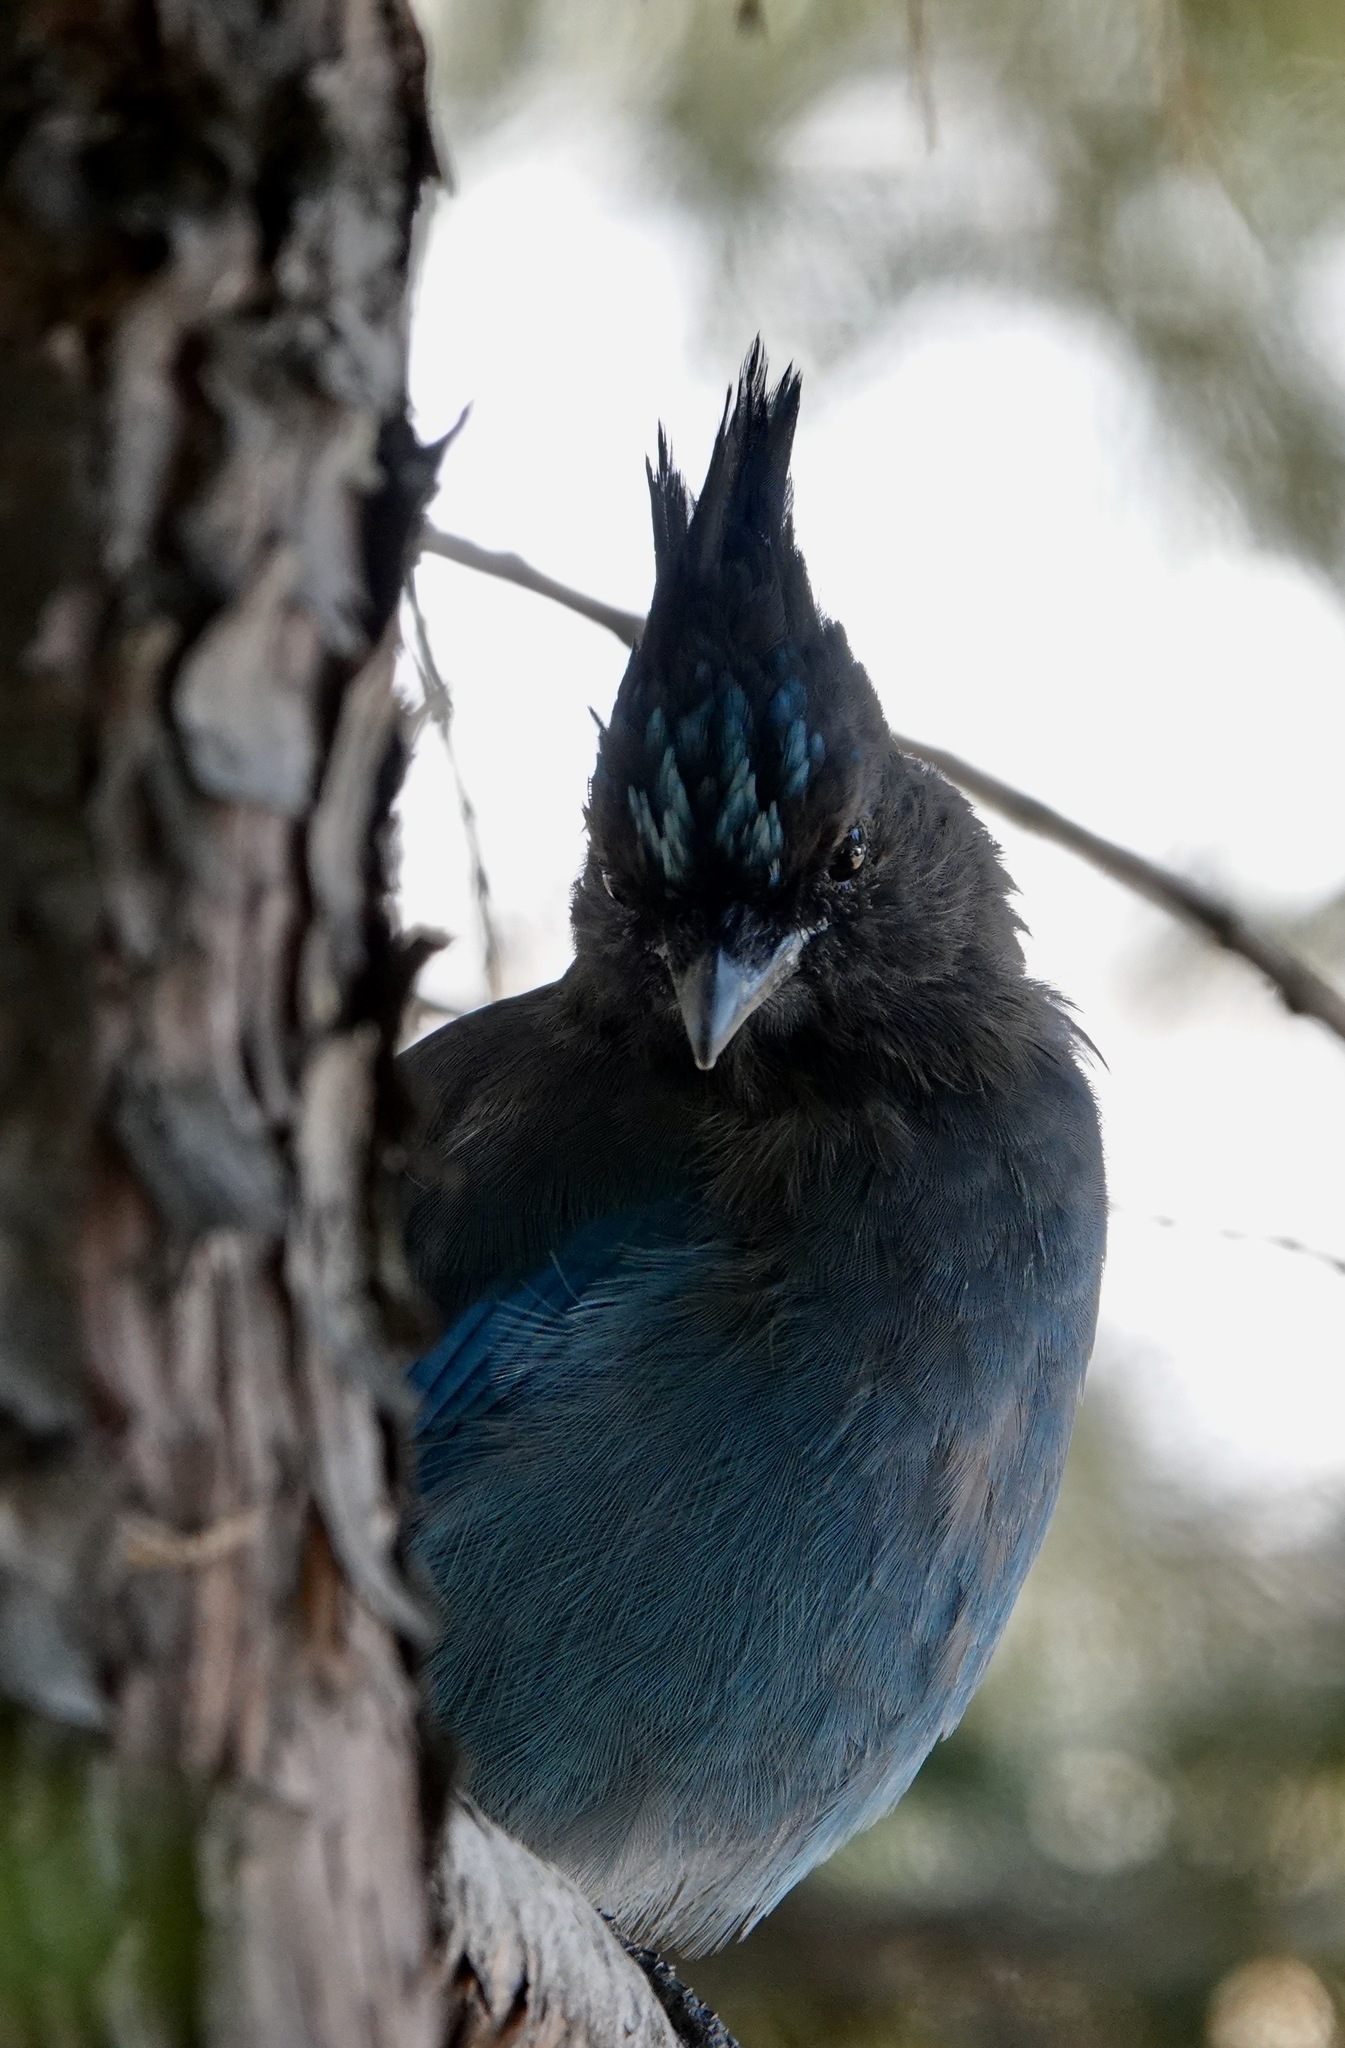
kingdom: Animalia
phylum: Chordata
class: Aves
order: Passeriformes
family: Corvidae
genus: Cyanocitta
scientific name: Cyanocitta stelleri
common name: Steller's jay
